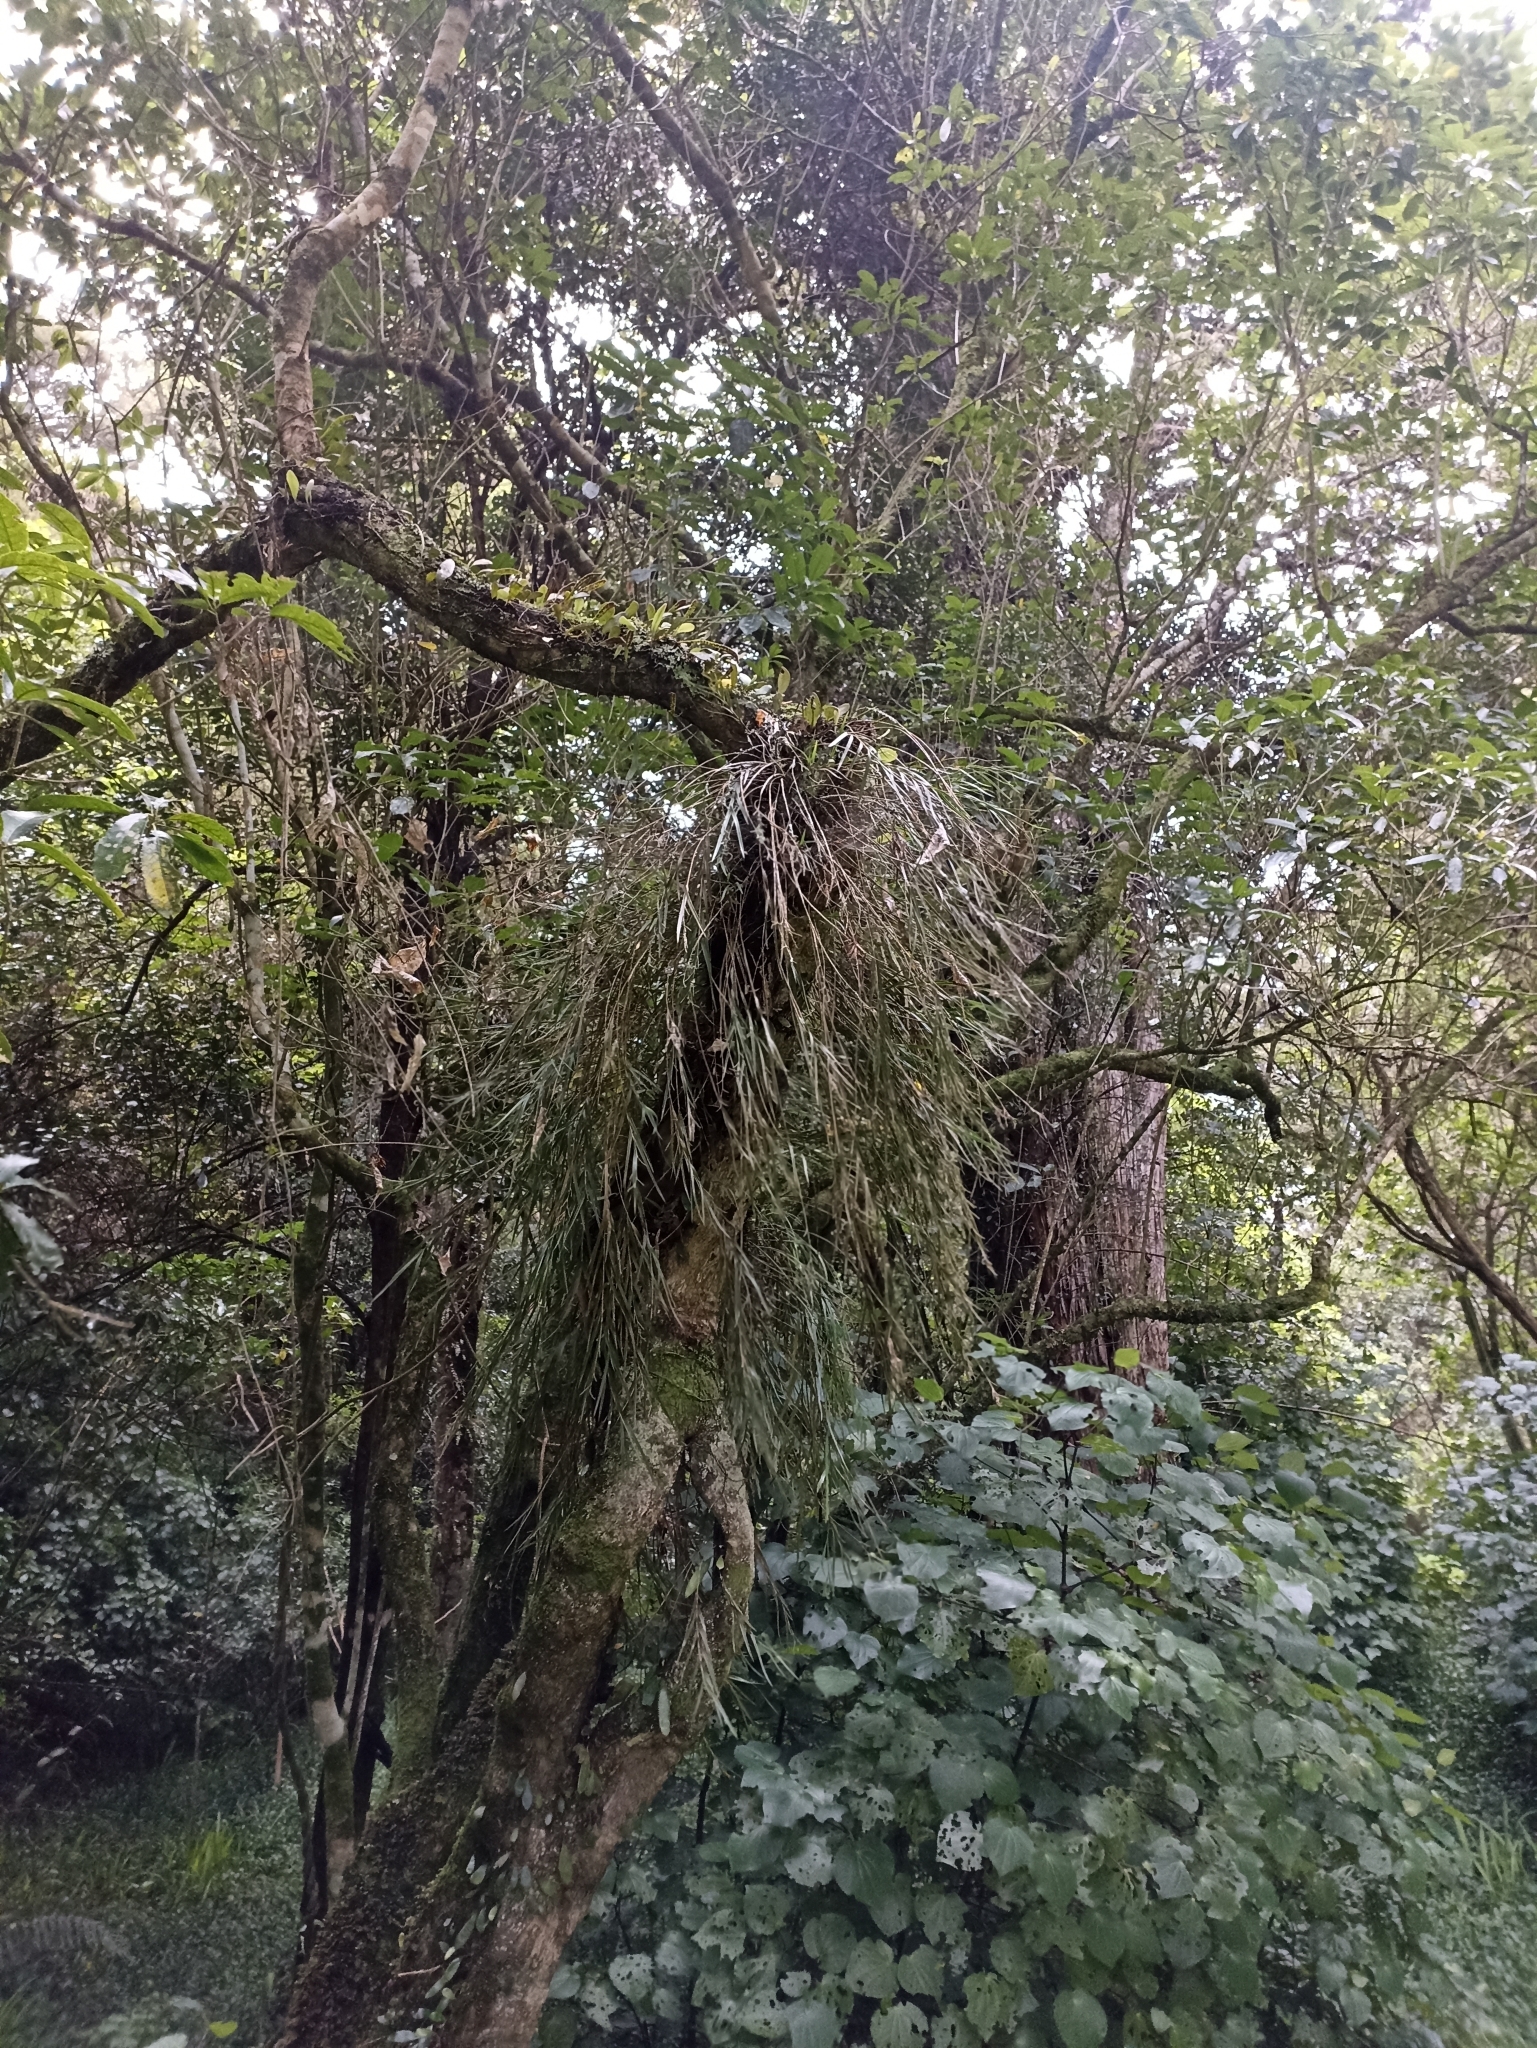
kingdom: Plantae
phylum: Tracheophyta
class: Liliopsida
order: Asparagales
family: Orchidaceae
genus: Earina
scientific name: Earina mucronata
